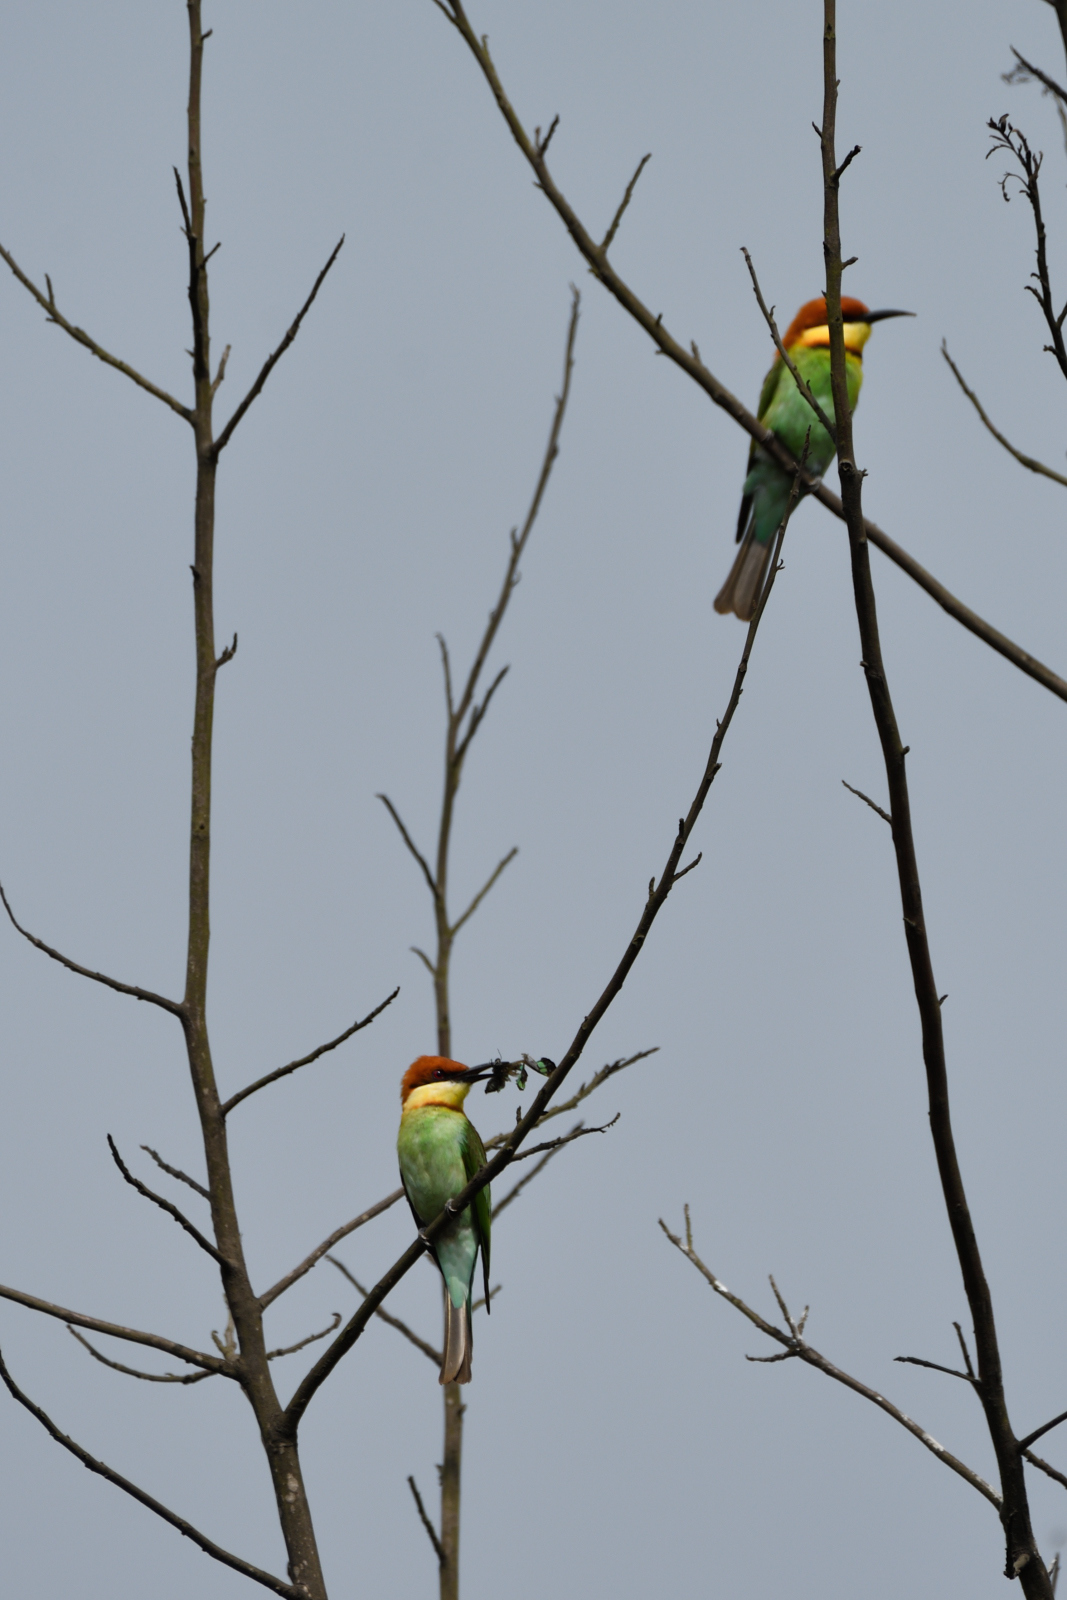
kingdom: Animalia
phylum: Chordata
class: Aves
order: Coraciiformes
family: Meropidae
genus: Merops
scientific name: Merops leschenaulti
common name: Chestnut-headed bee-eater
